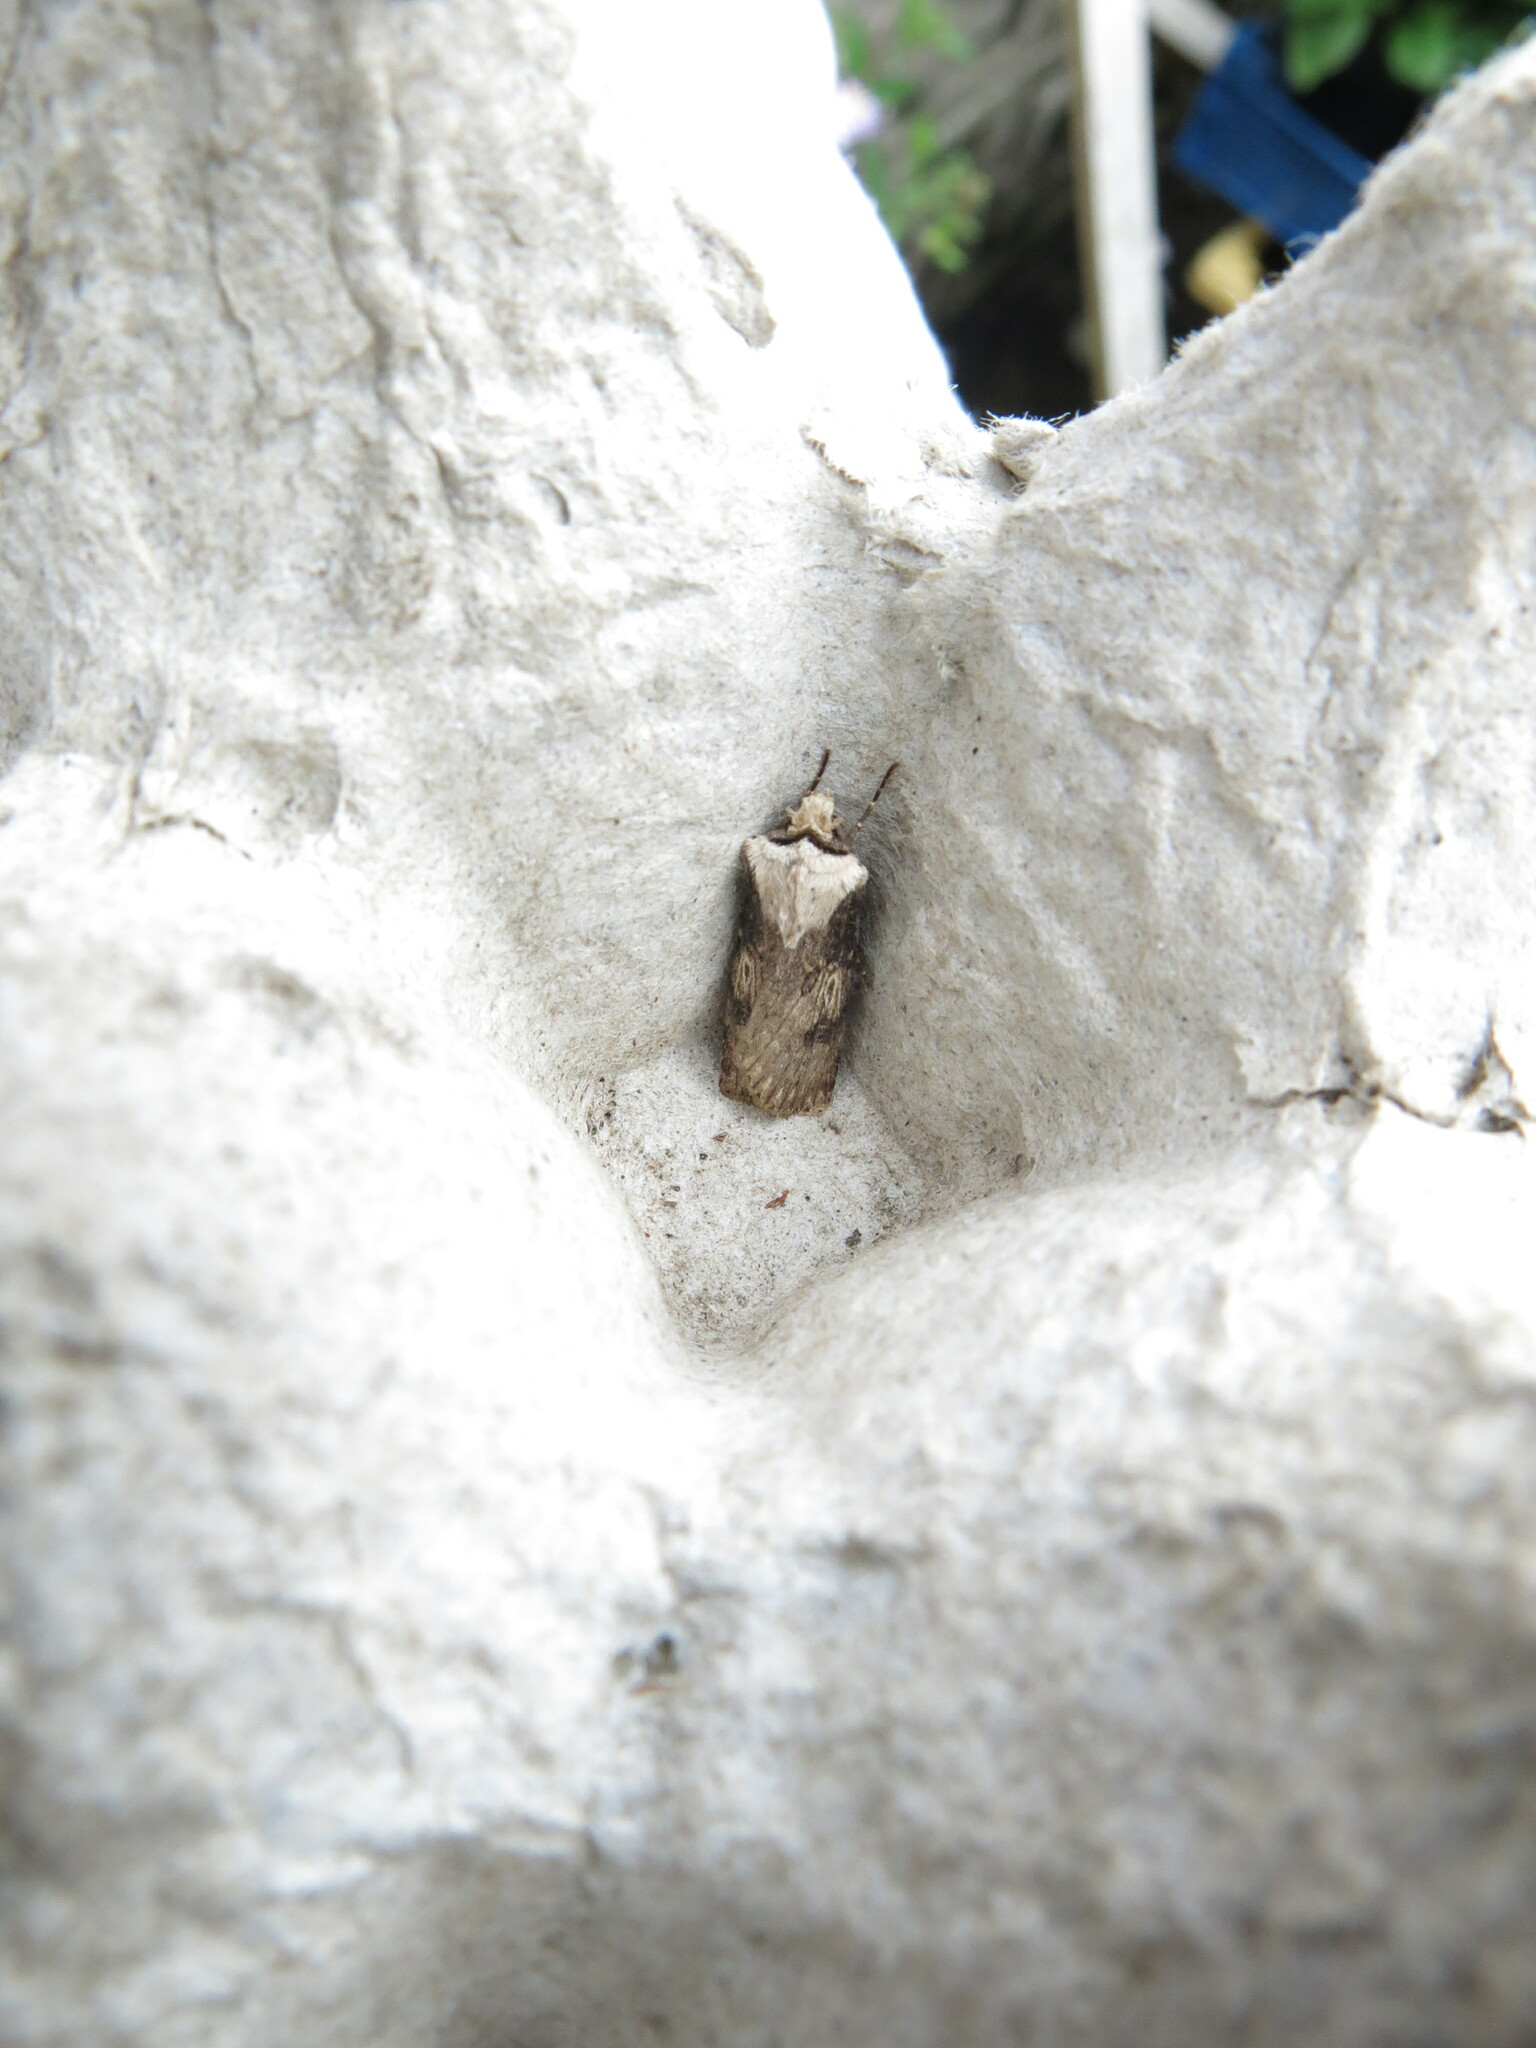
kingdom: Animalia
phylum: Arthropoda
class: Insecta
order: Lepidoptera
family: Noctuidae
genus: Agrotis
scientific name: Agrotis puta
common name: Shuttle-shaped dart
